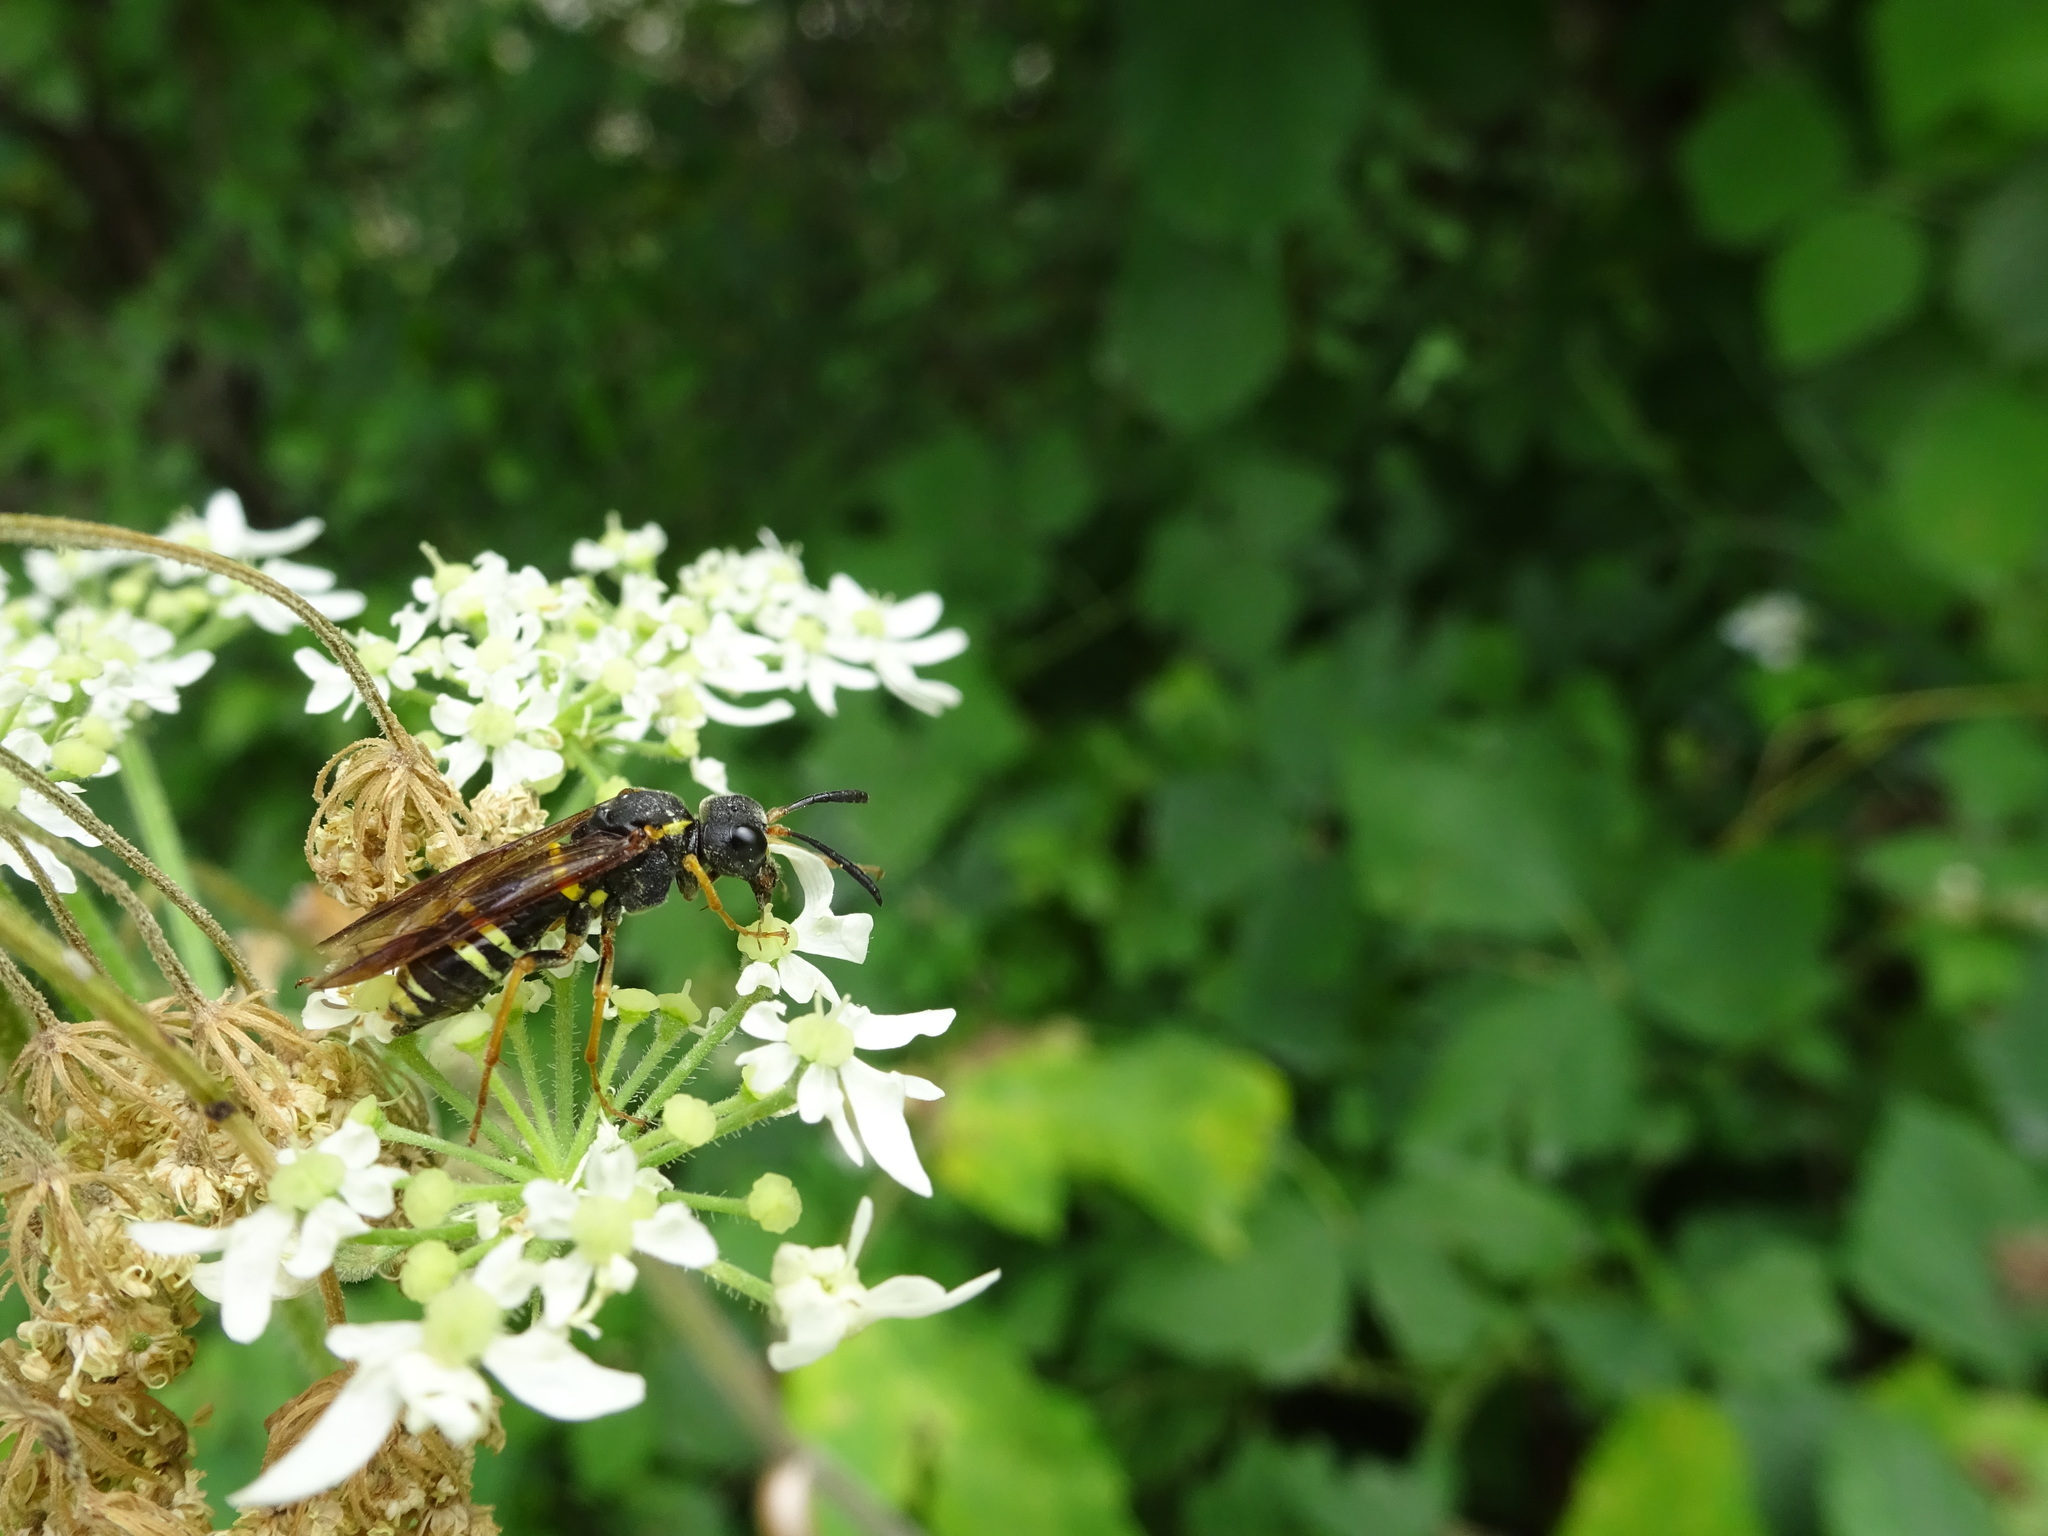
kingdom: Animalia
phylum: Arthropoda
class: Insecta
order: Hymenoptera
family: Tenthredinidae
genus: Tenthredo
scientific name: Tenthredo vespa
